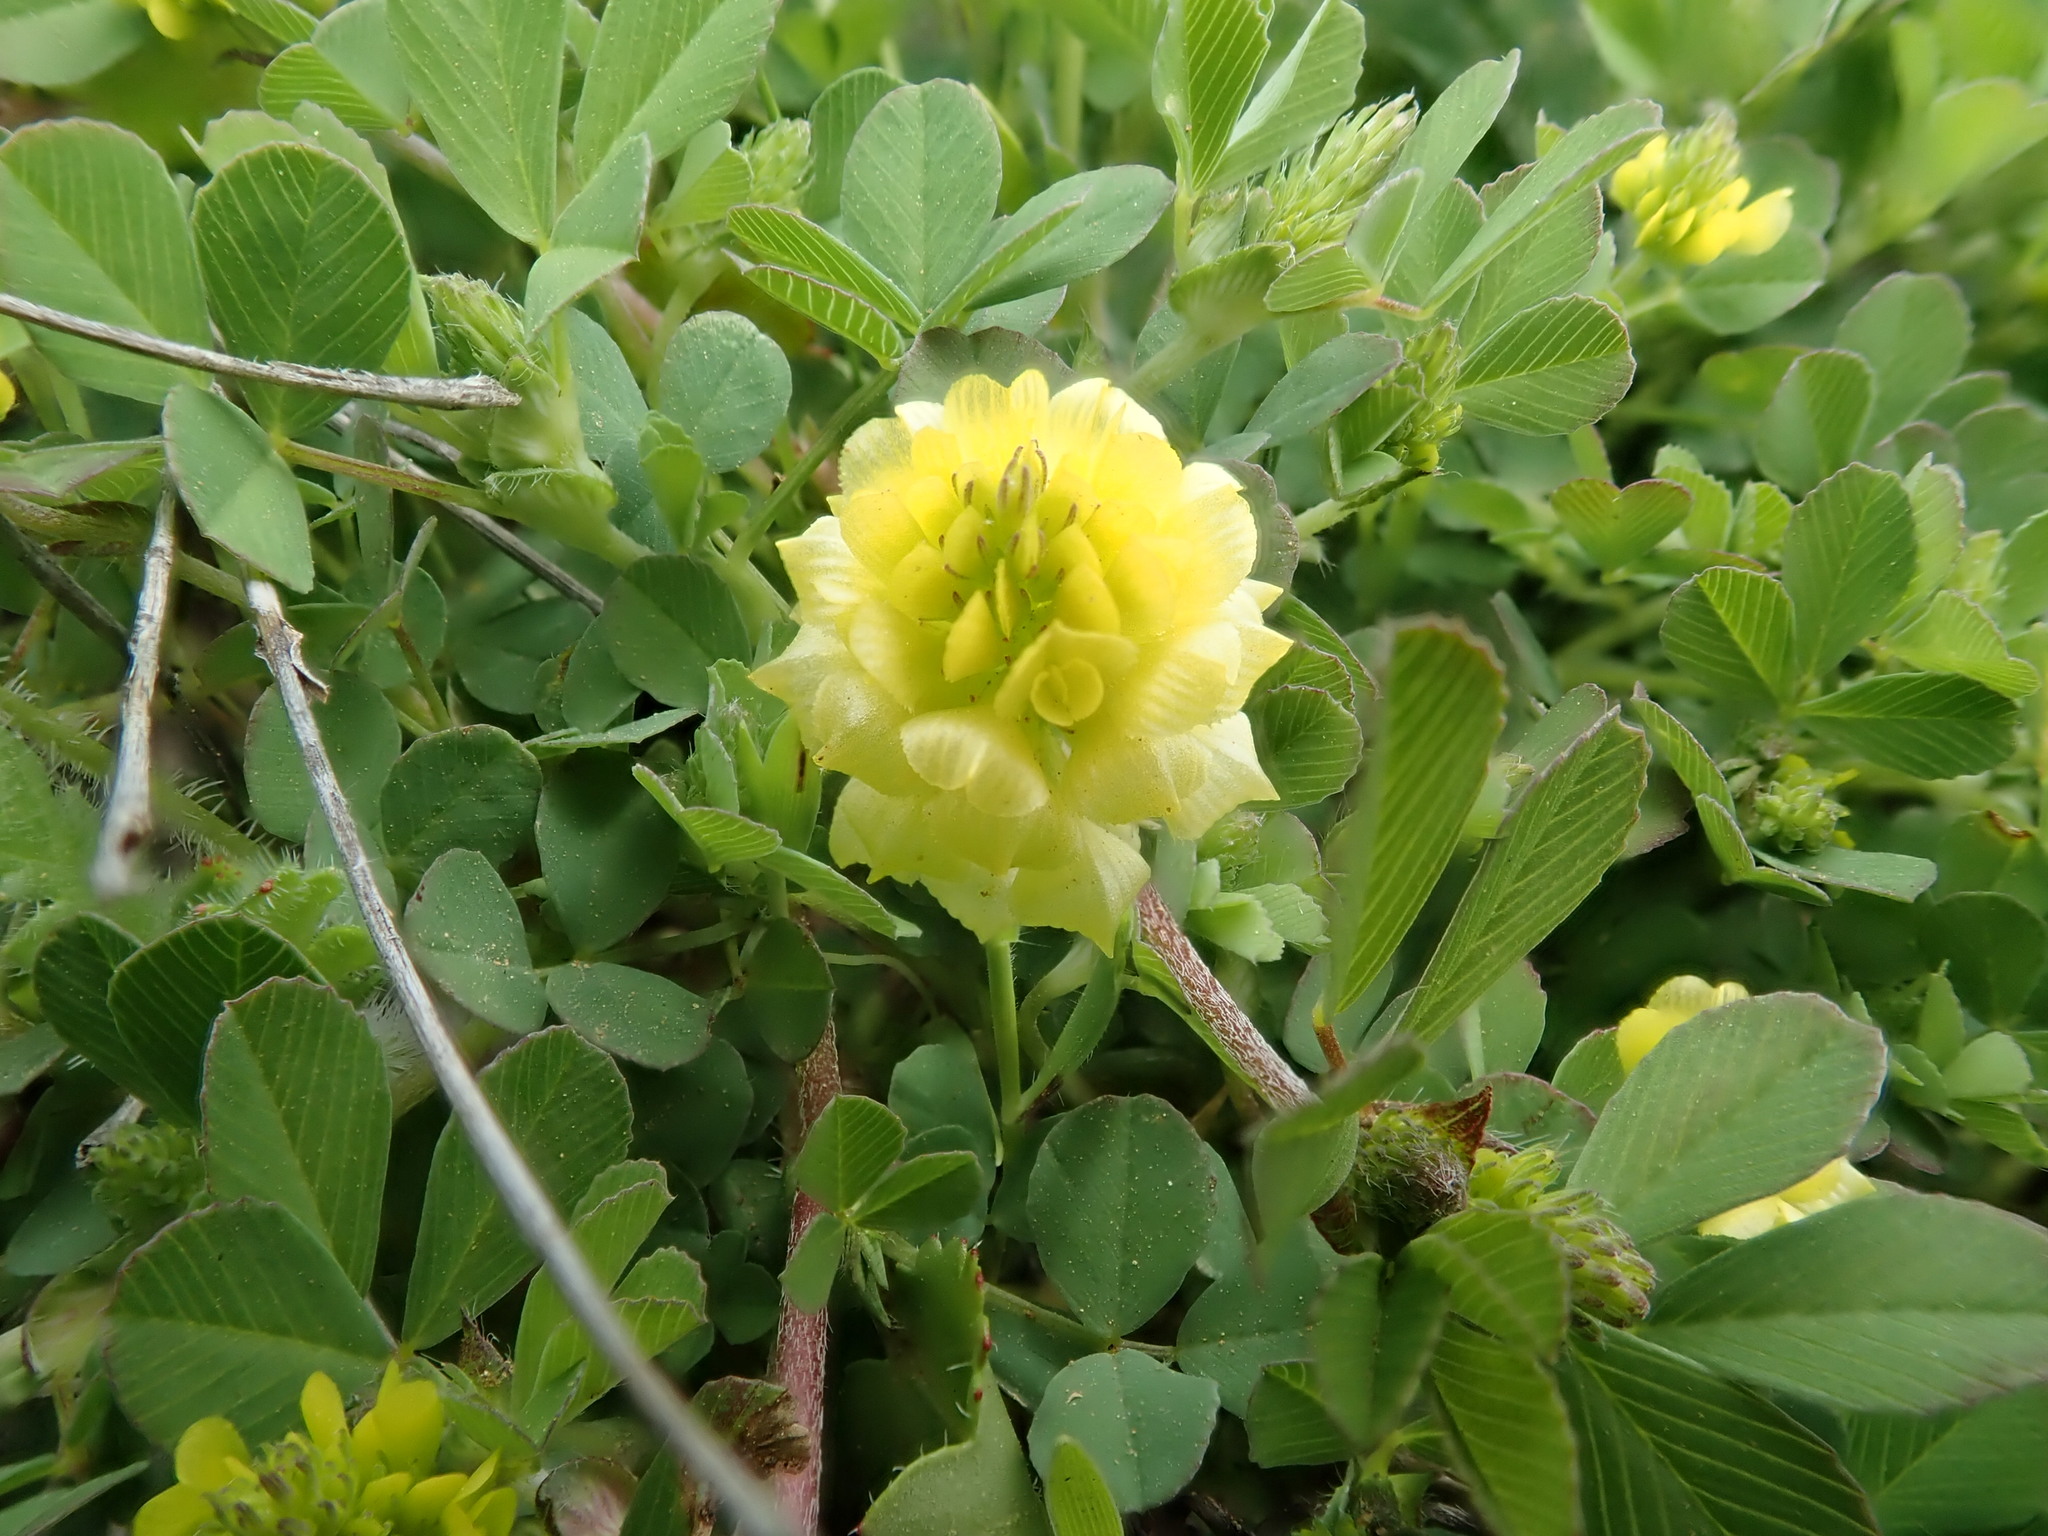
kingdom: Plantae
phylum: Tracheophyta
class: Magnoliopsida
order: Fabales
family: Fabaceae
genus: Trifolium
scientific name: Trifolium campestre
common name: Field clover
